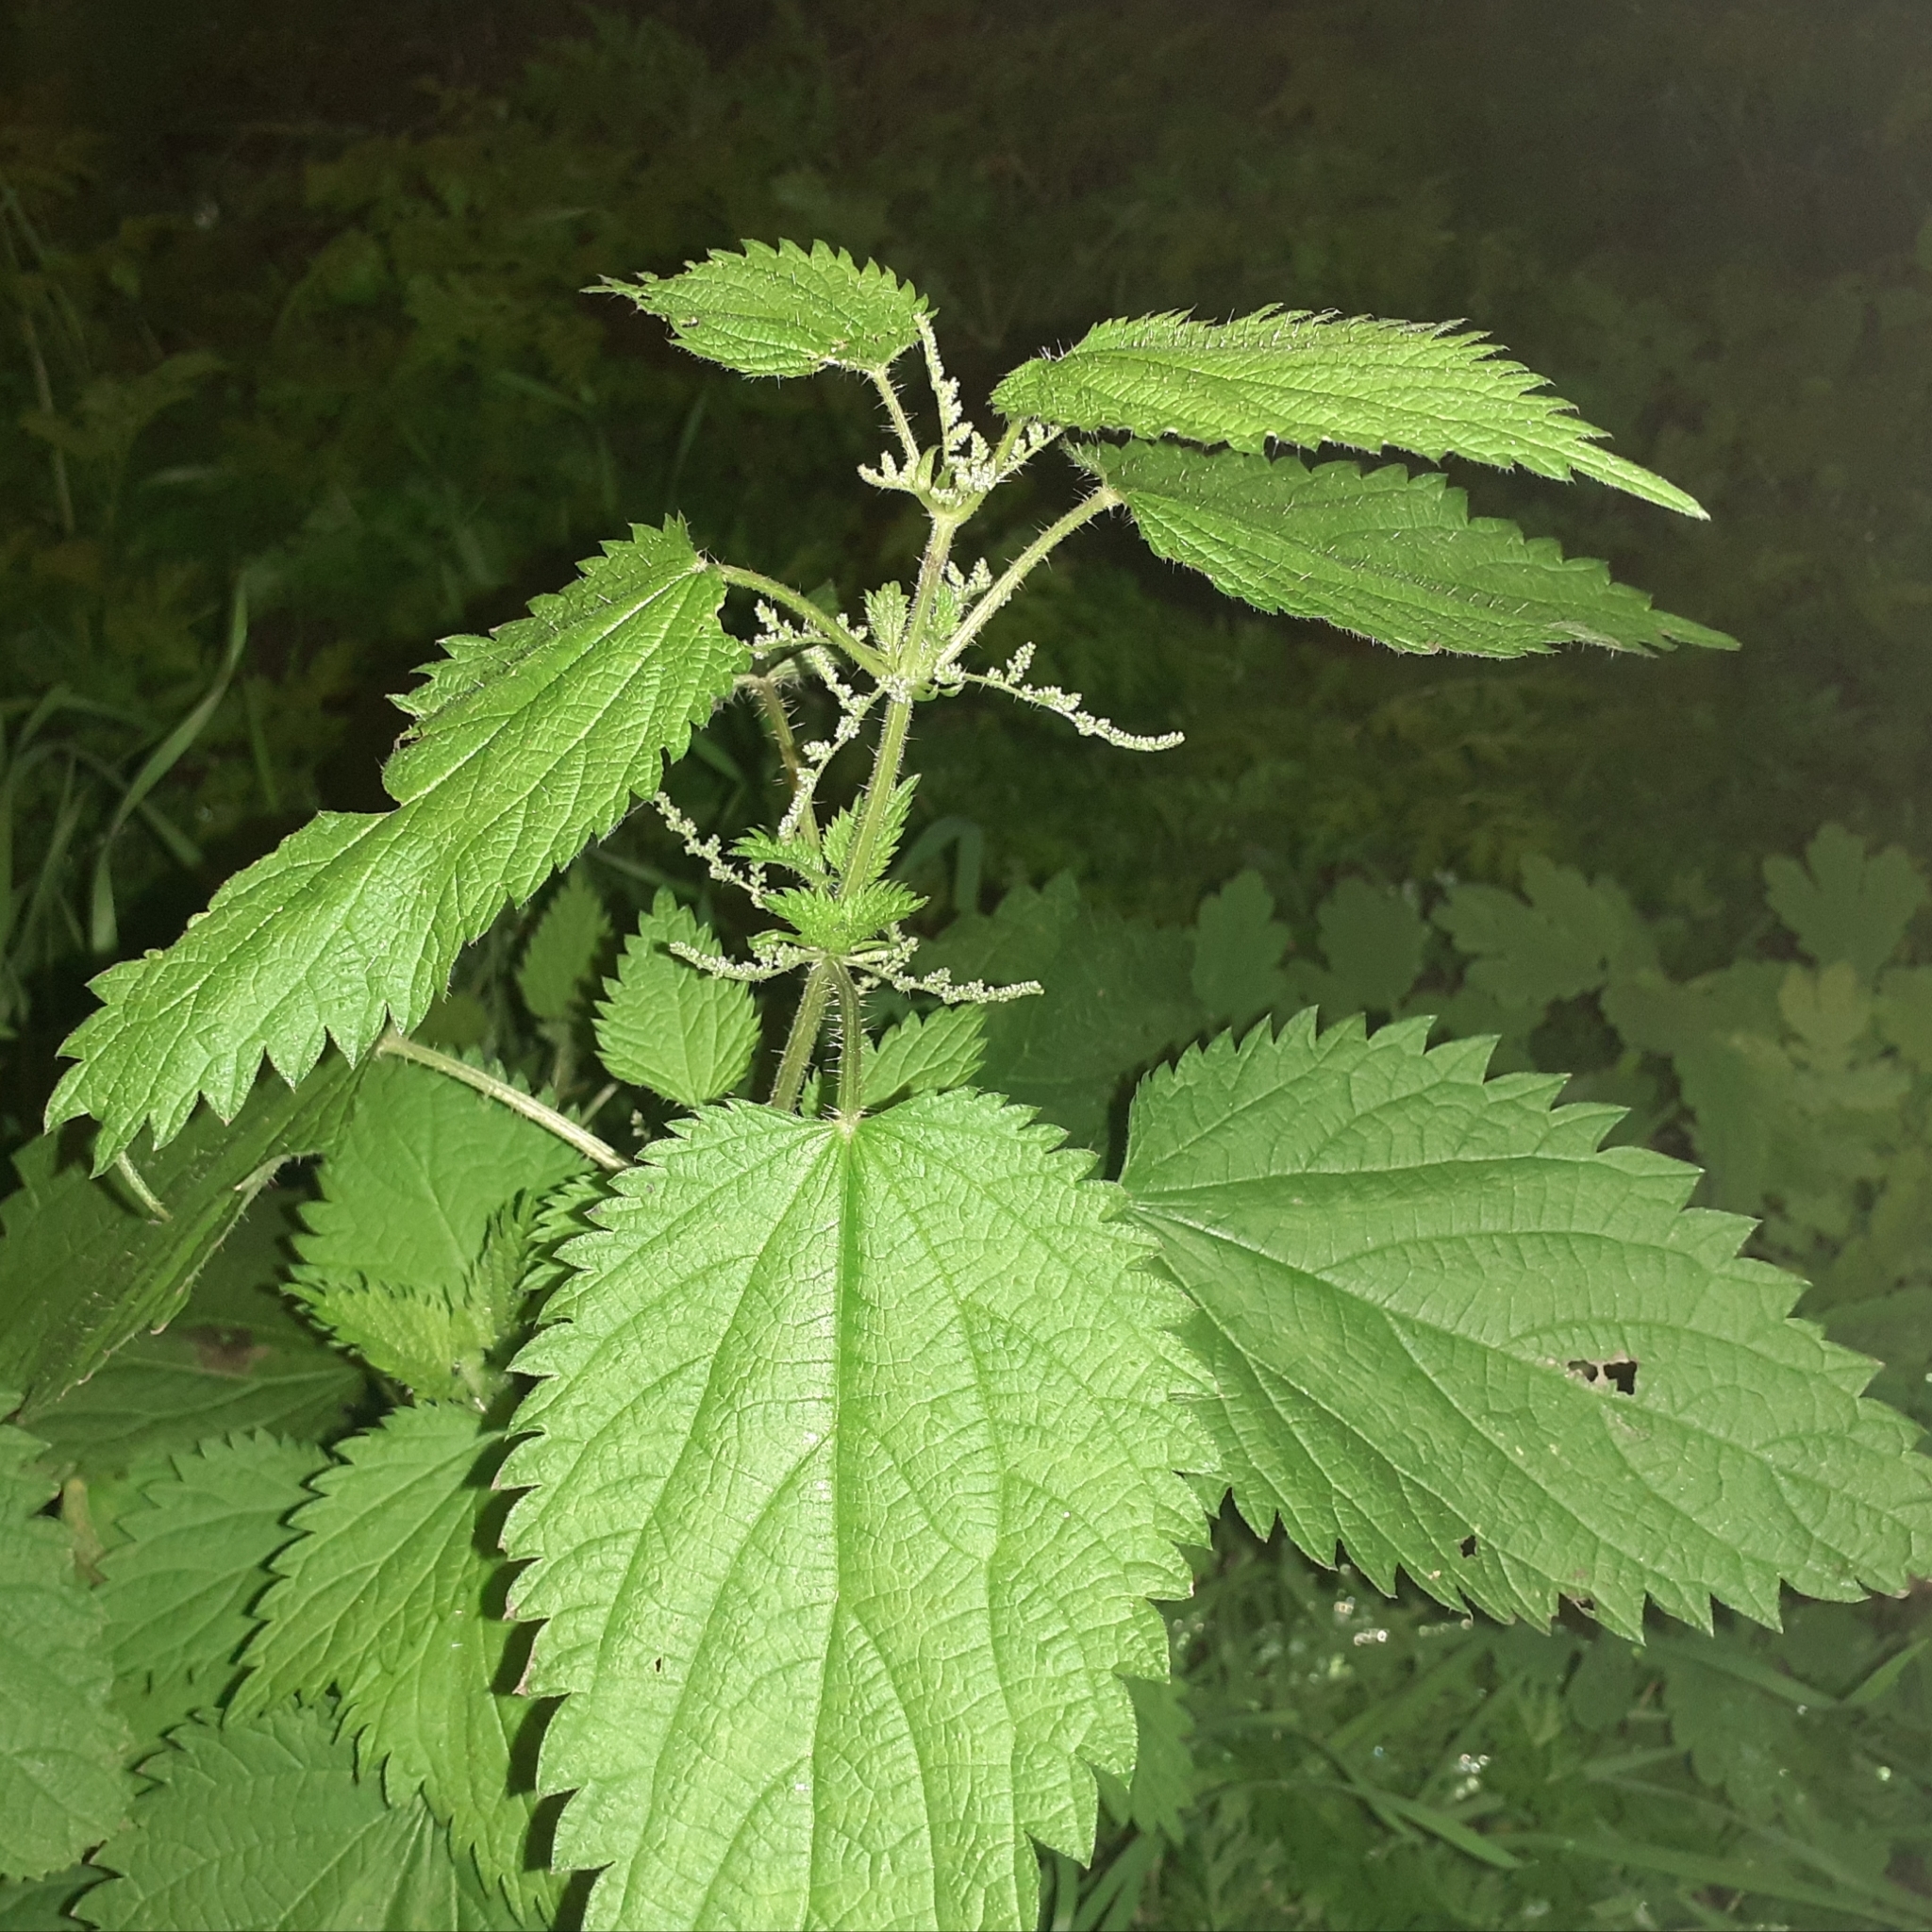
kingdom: Plantae
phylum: Tracheophyta
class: Magnoliopsida
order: Rosales
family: Urticaceae
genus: Urtica
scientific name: Urtica dioica
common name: Common nettle
